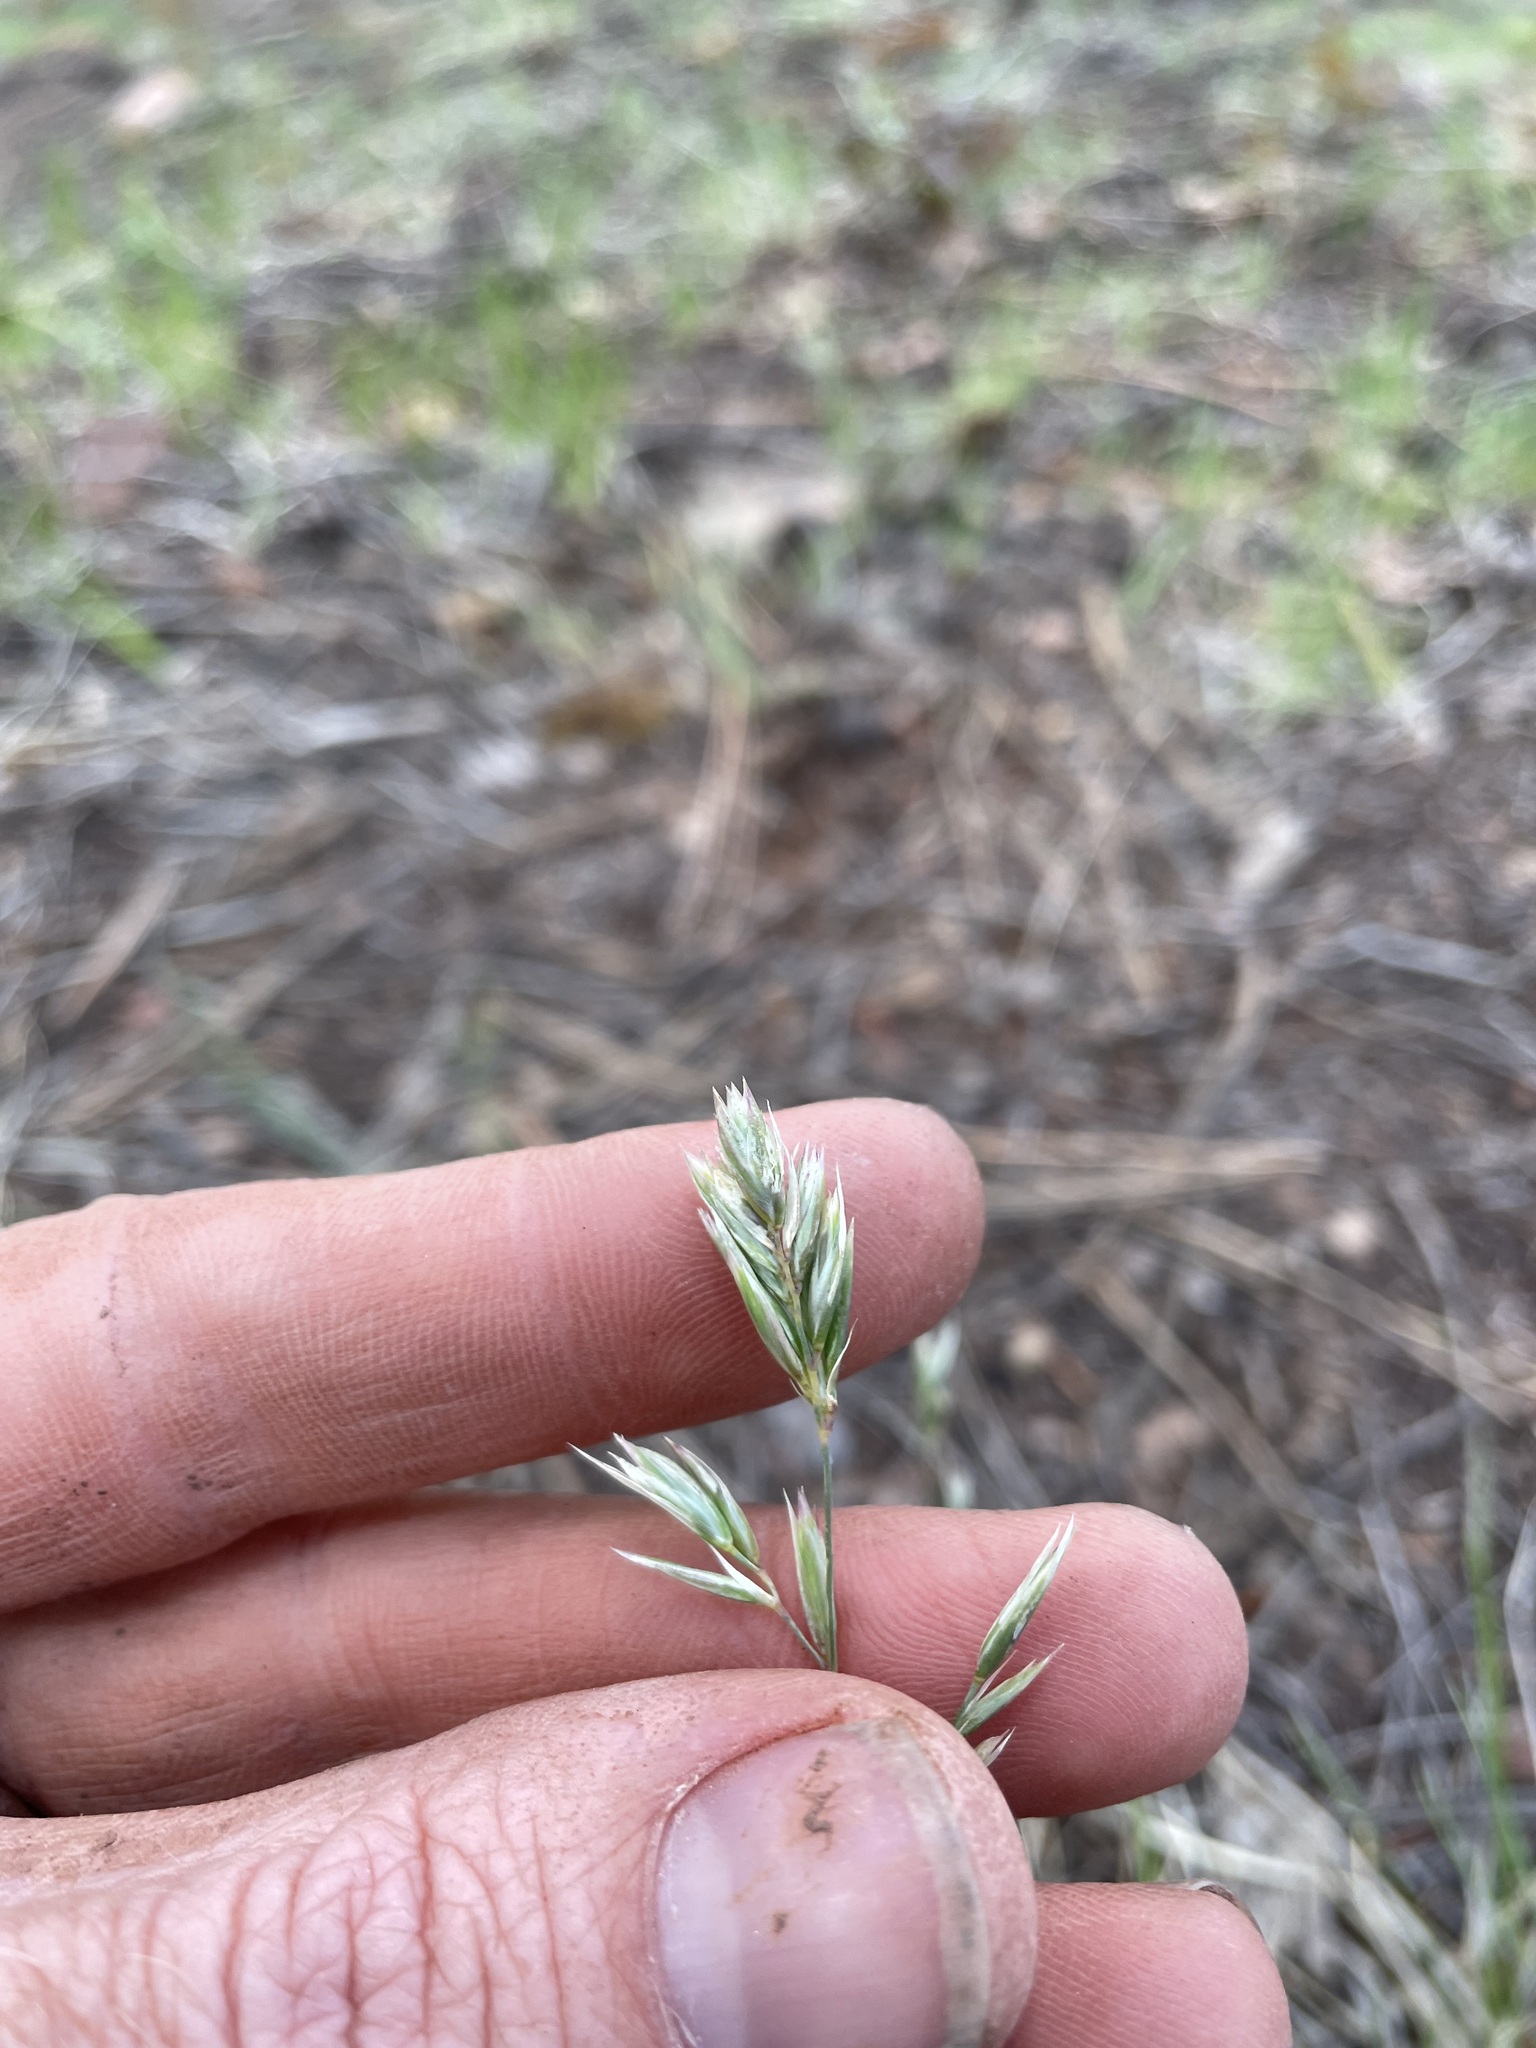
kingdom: Plantae
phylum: Tracheophyta
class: Liliopsida
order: Poales
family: Poaceae
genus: Poa
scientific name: Poa fendleriana
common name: Mutton bluegrass
